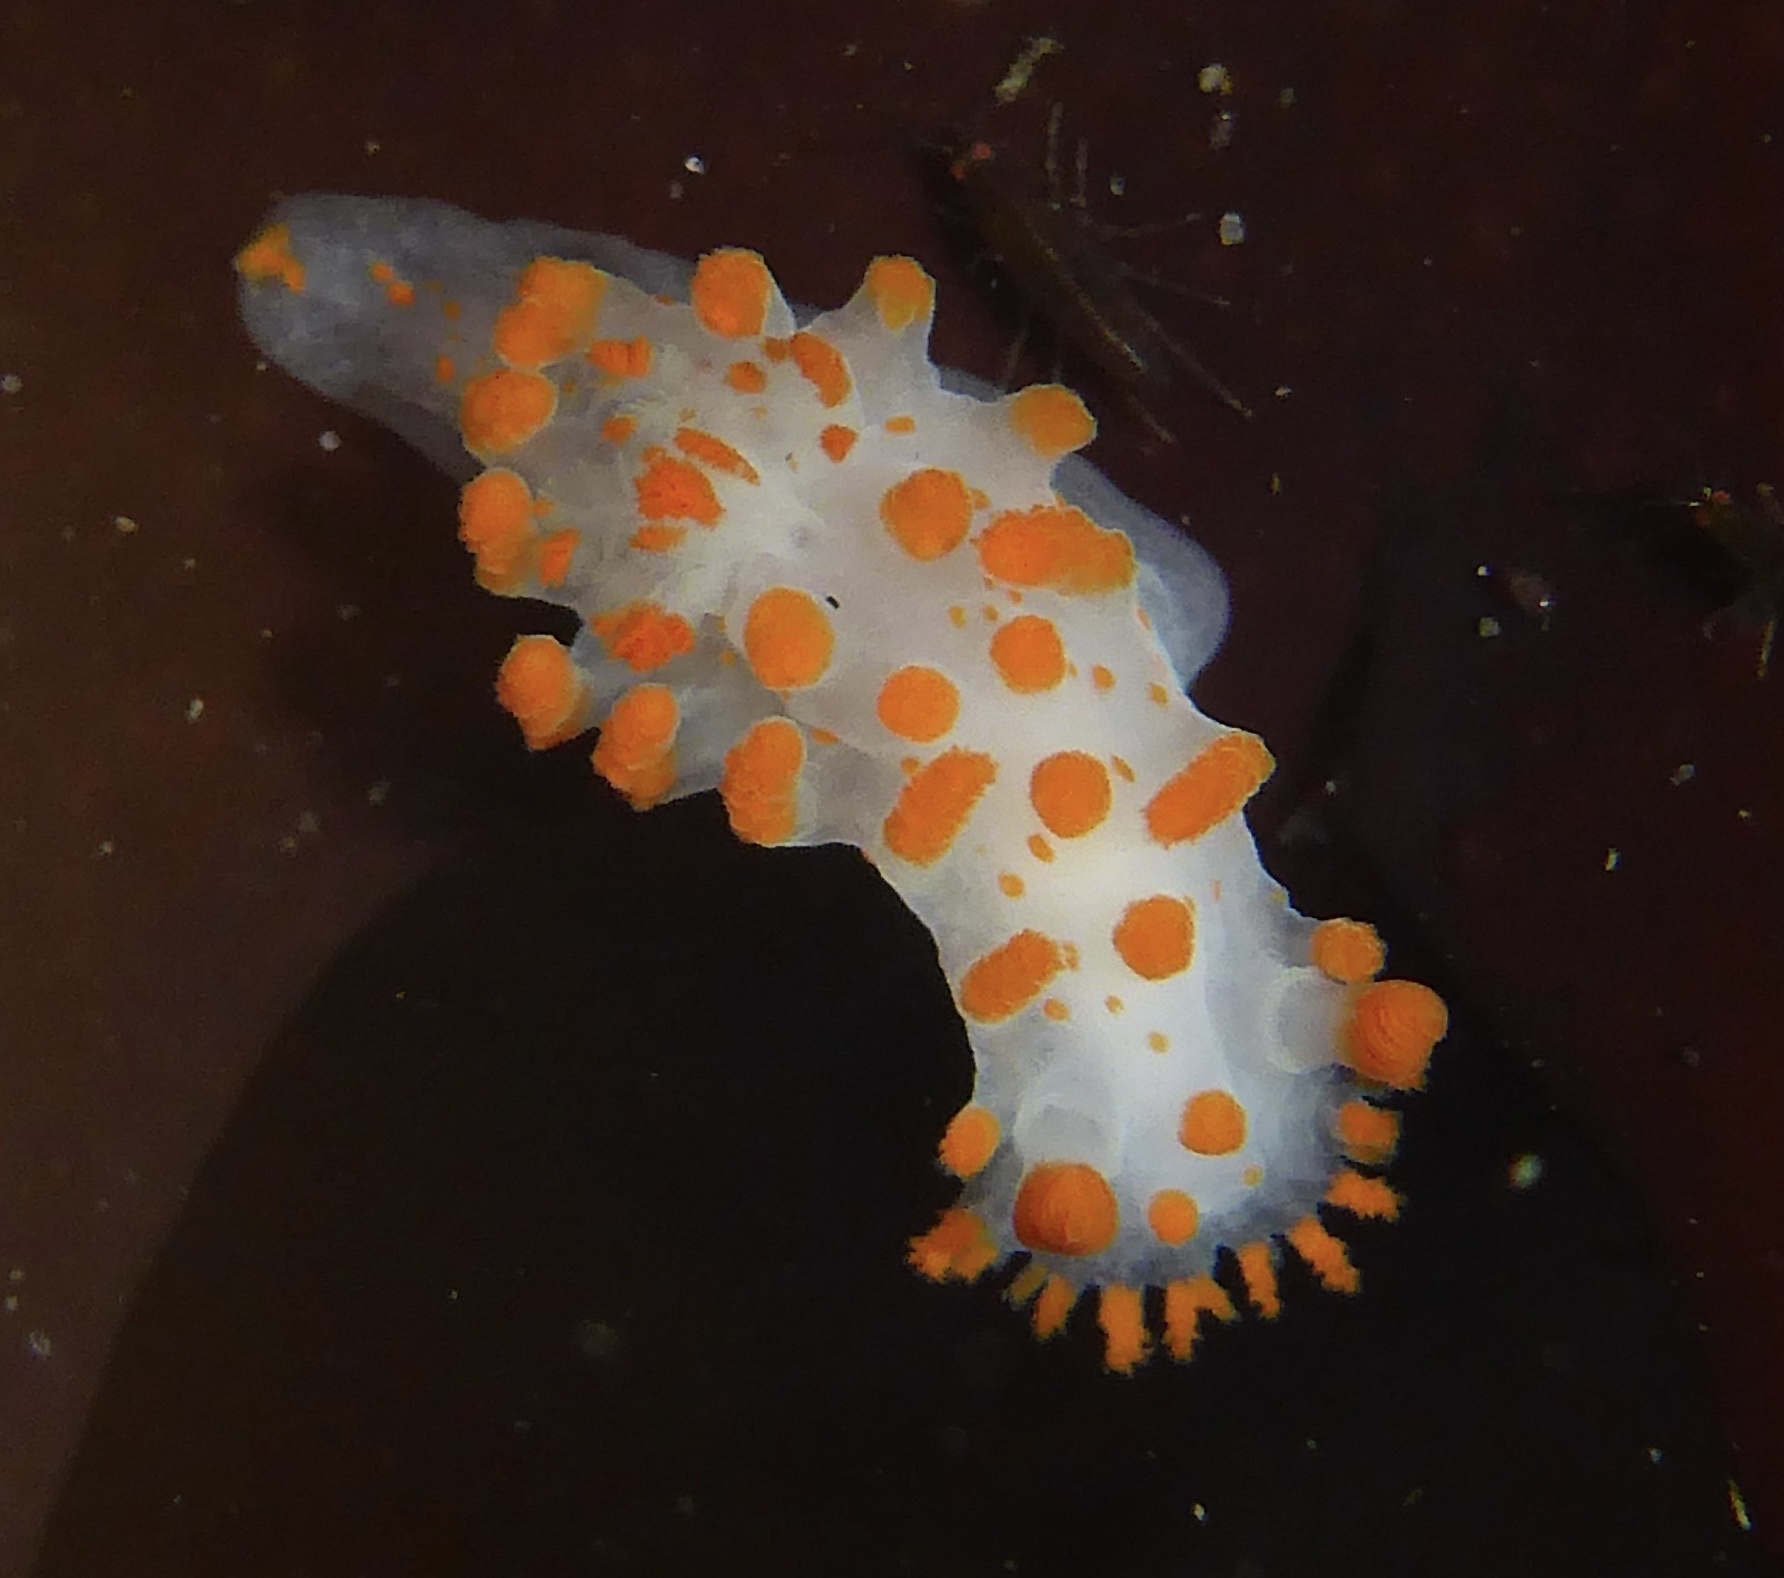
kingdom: Animalia
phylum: Mollusca
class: Gastropoda
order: Nudibranchia
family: Polyceridae
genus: Triopha
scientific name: Triopha catalinae
